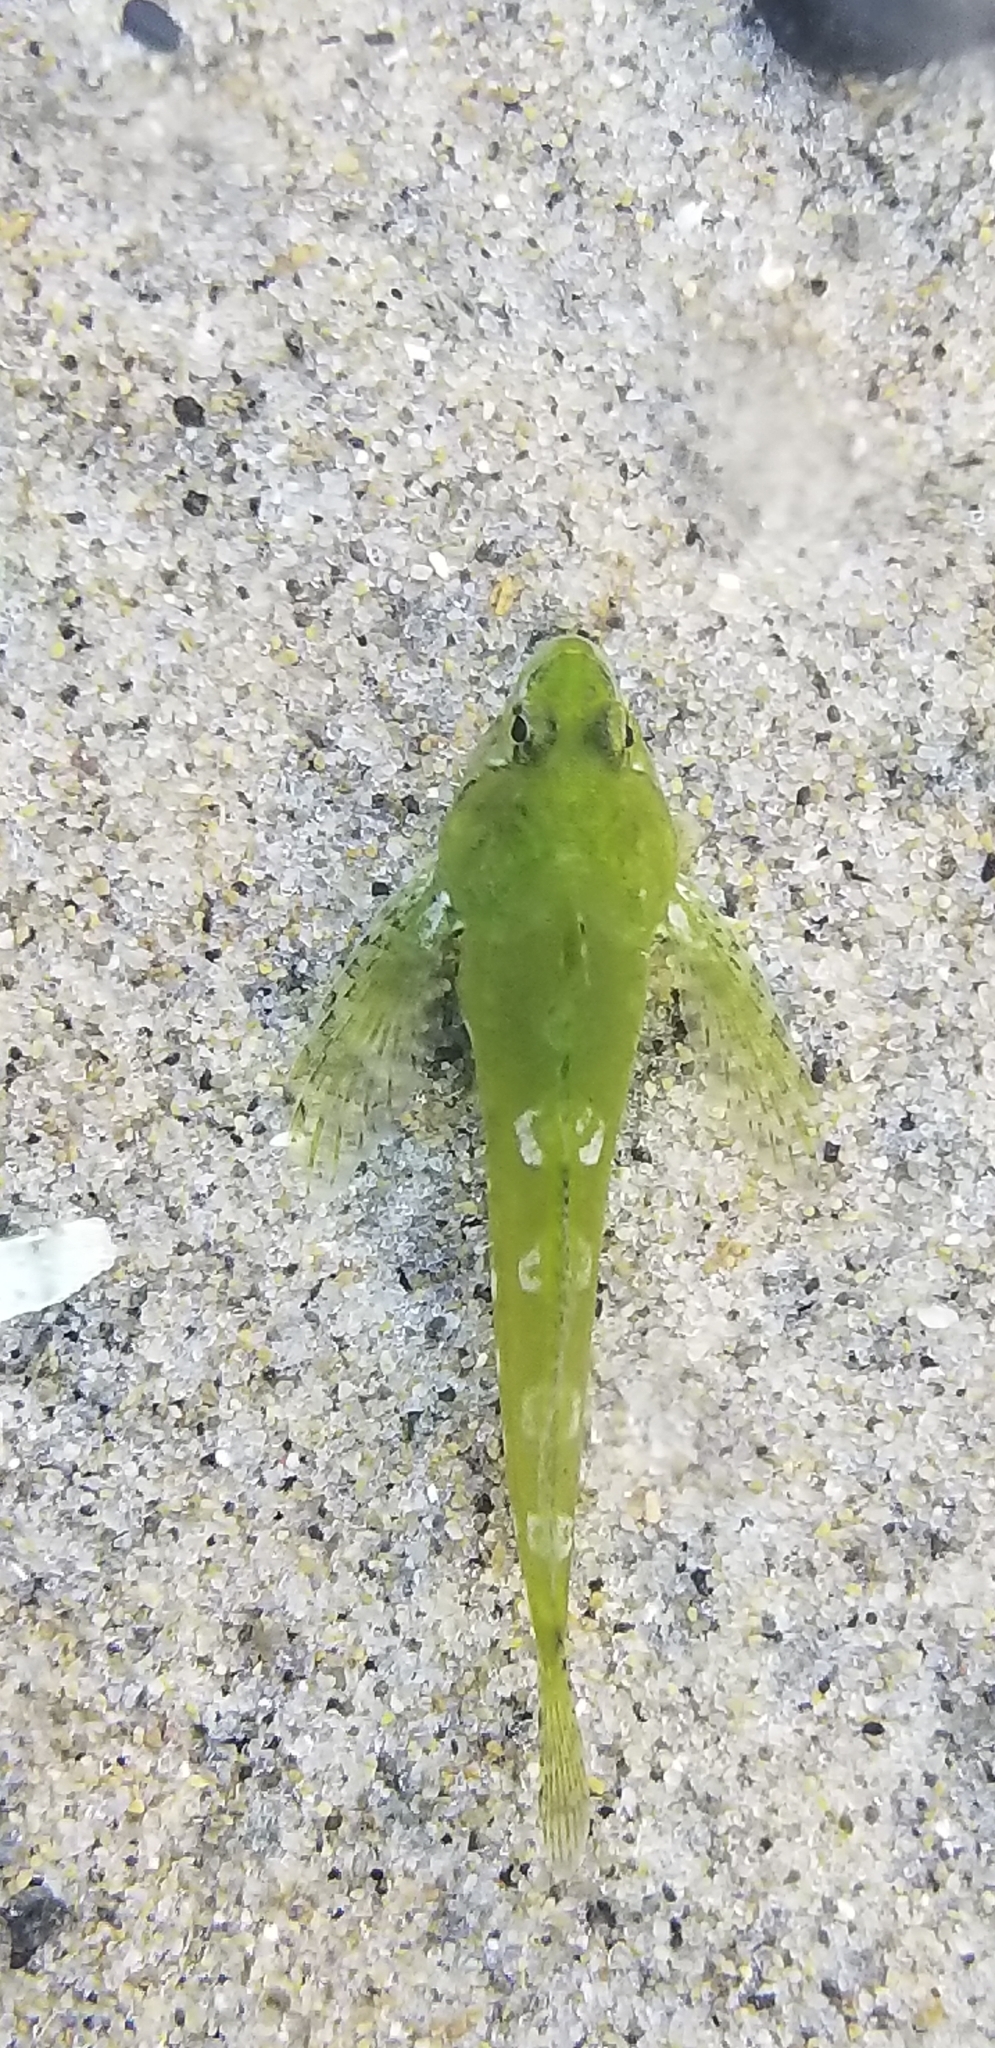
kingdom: Animalia
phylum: Chordata
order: Scorpaeniformes
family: Cottidae
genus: Oligocottus
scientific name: Oligocottus snyderi
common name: Fluffy sculpin
